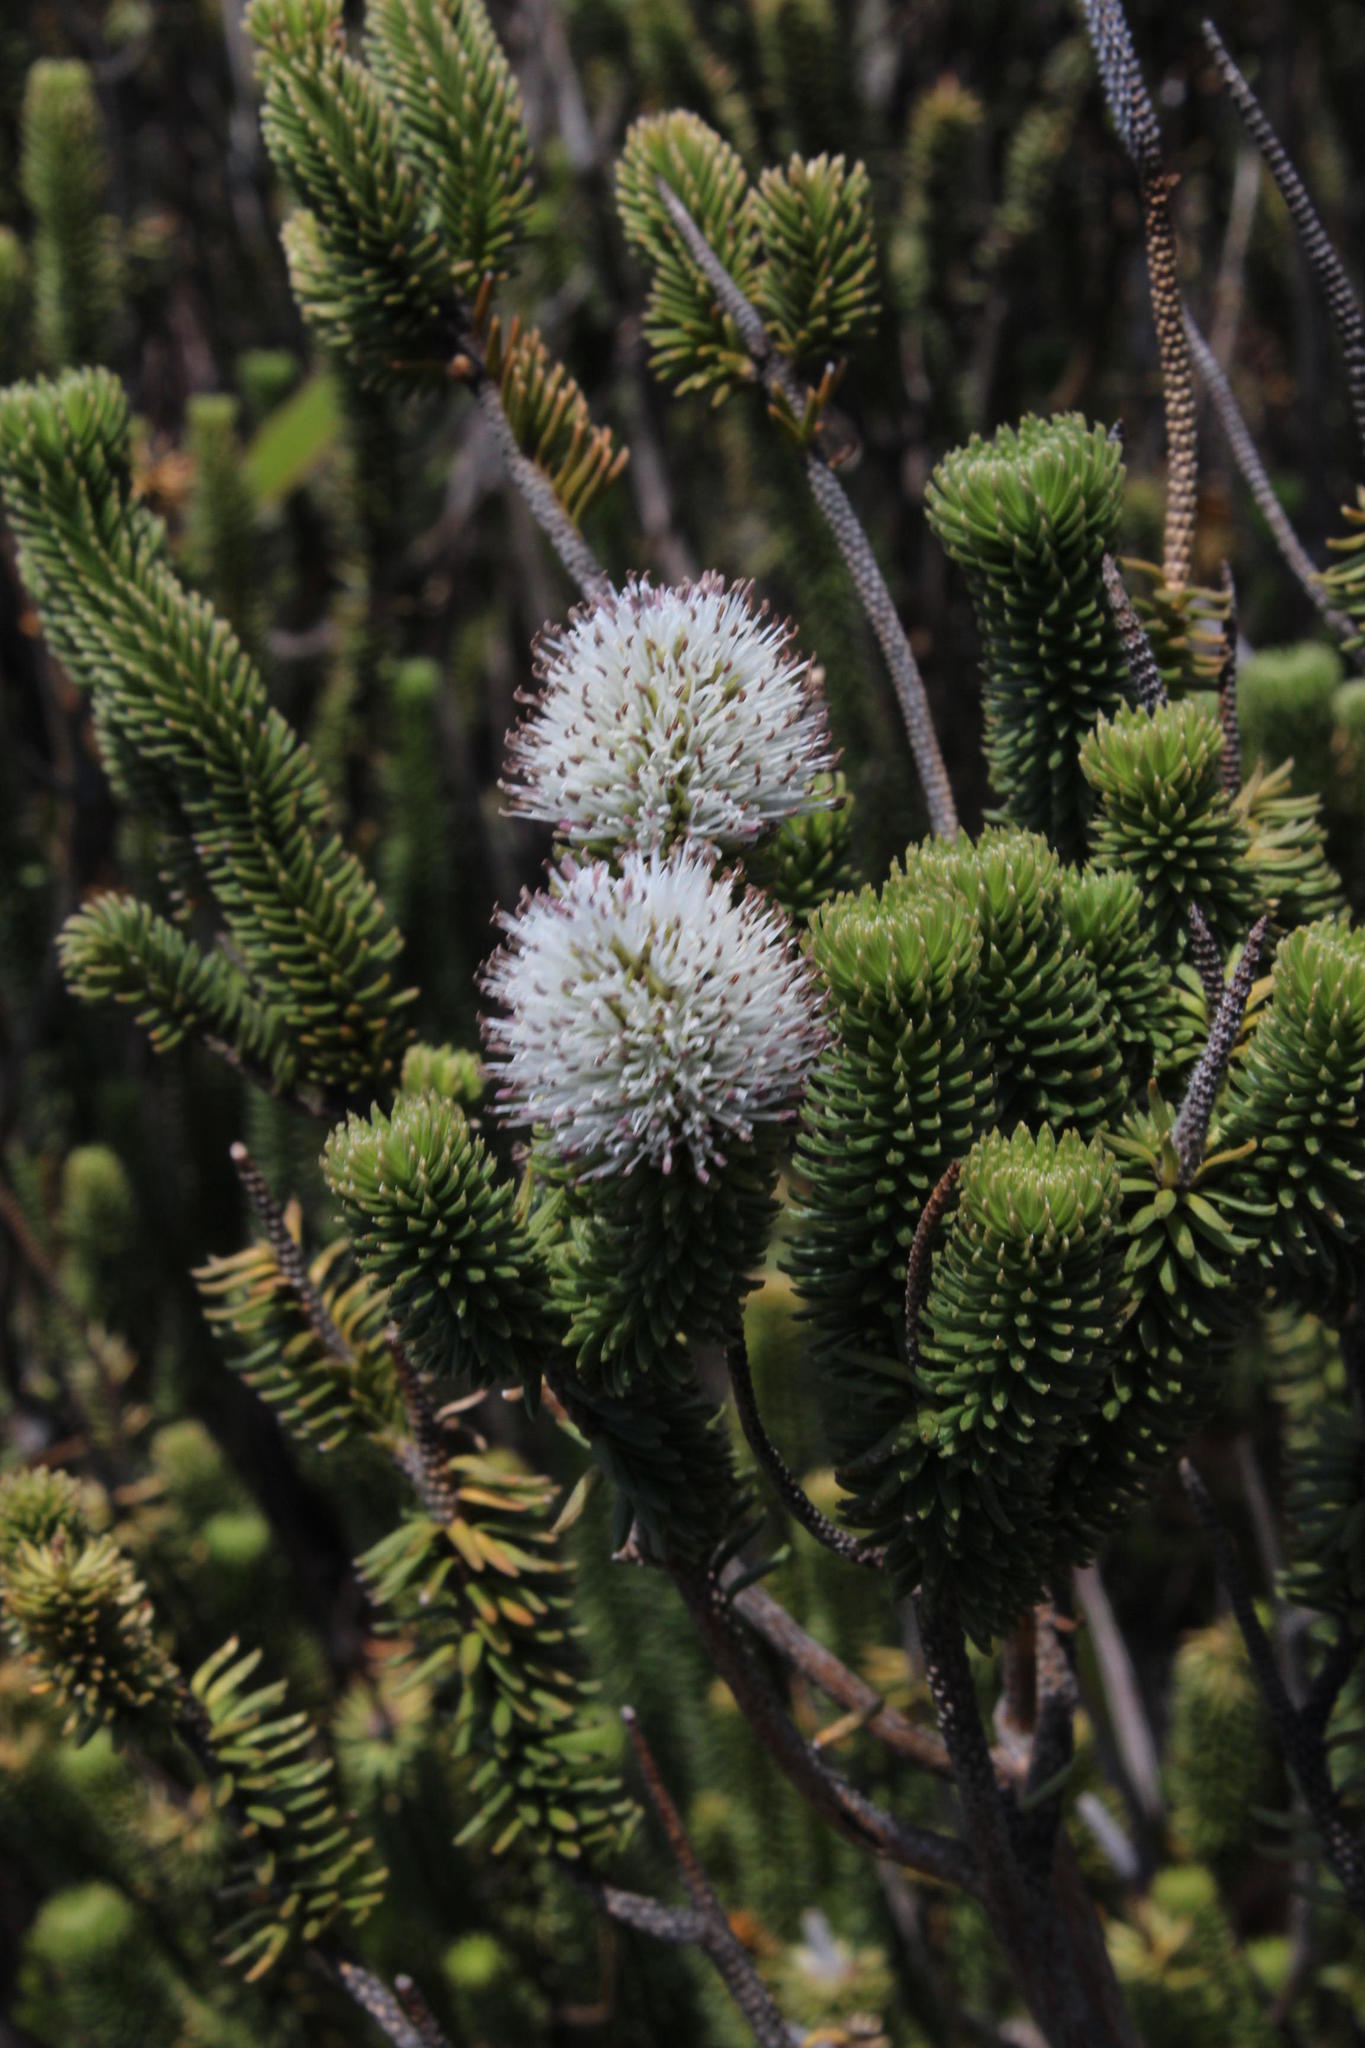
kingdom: Plantae
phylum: Tracheophyta
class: Magnoliopsida
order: Lamiales
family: Stilbaceae
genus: Stilbe
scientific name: Stilbe vestita
